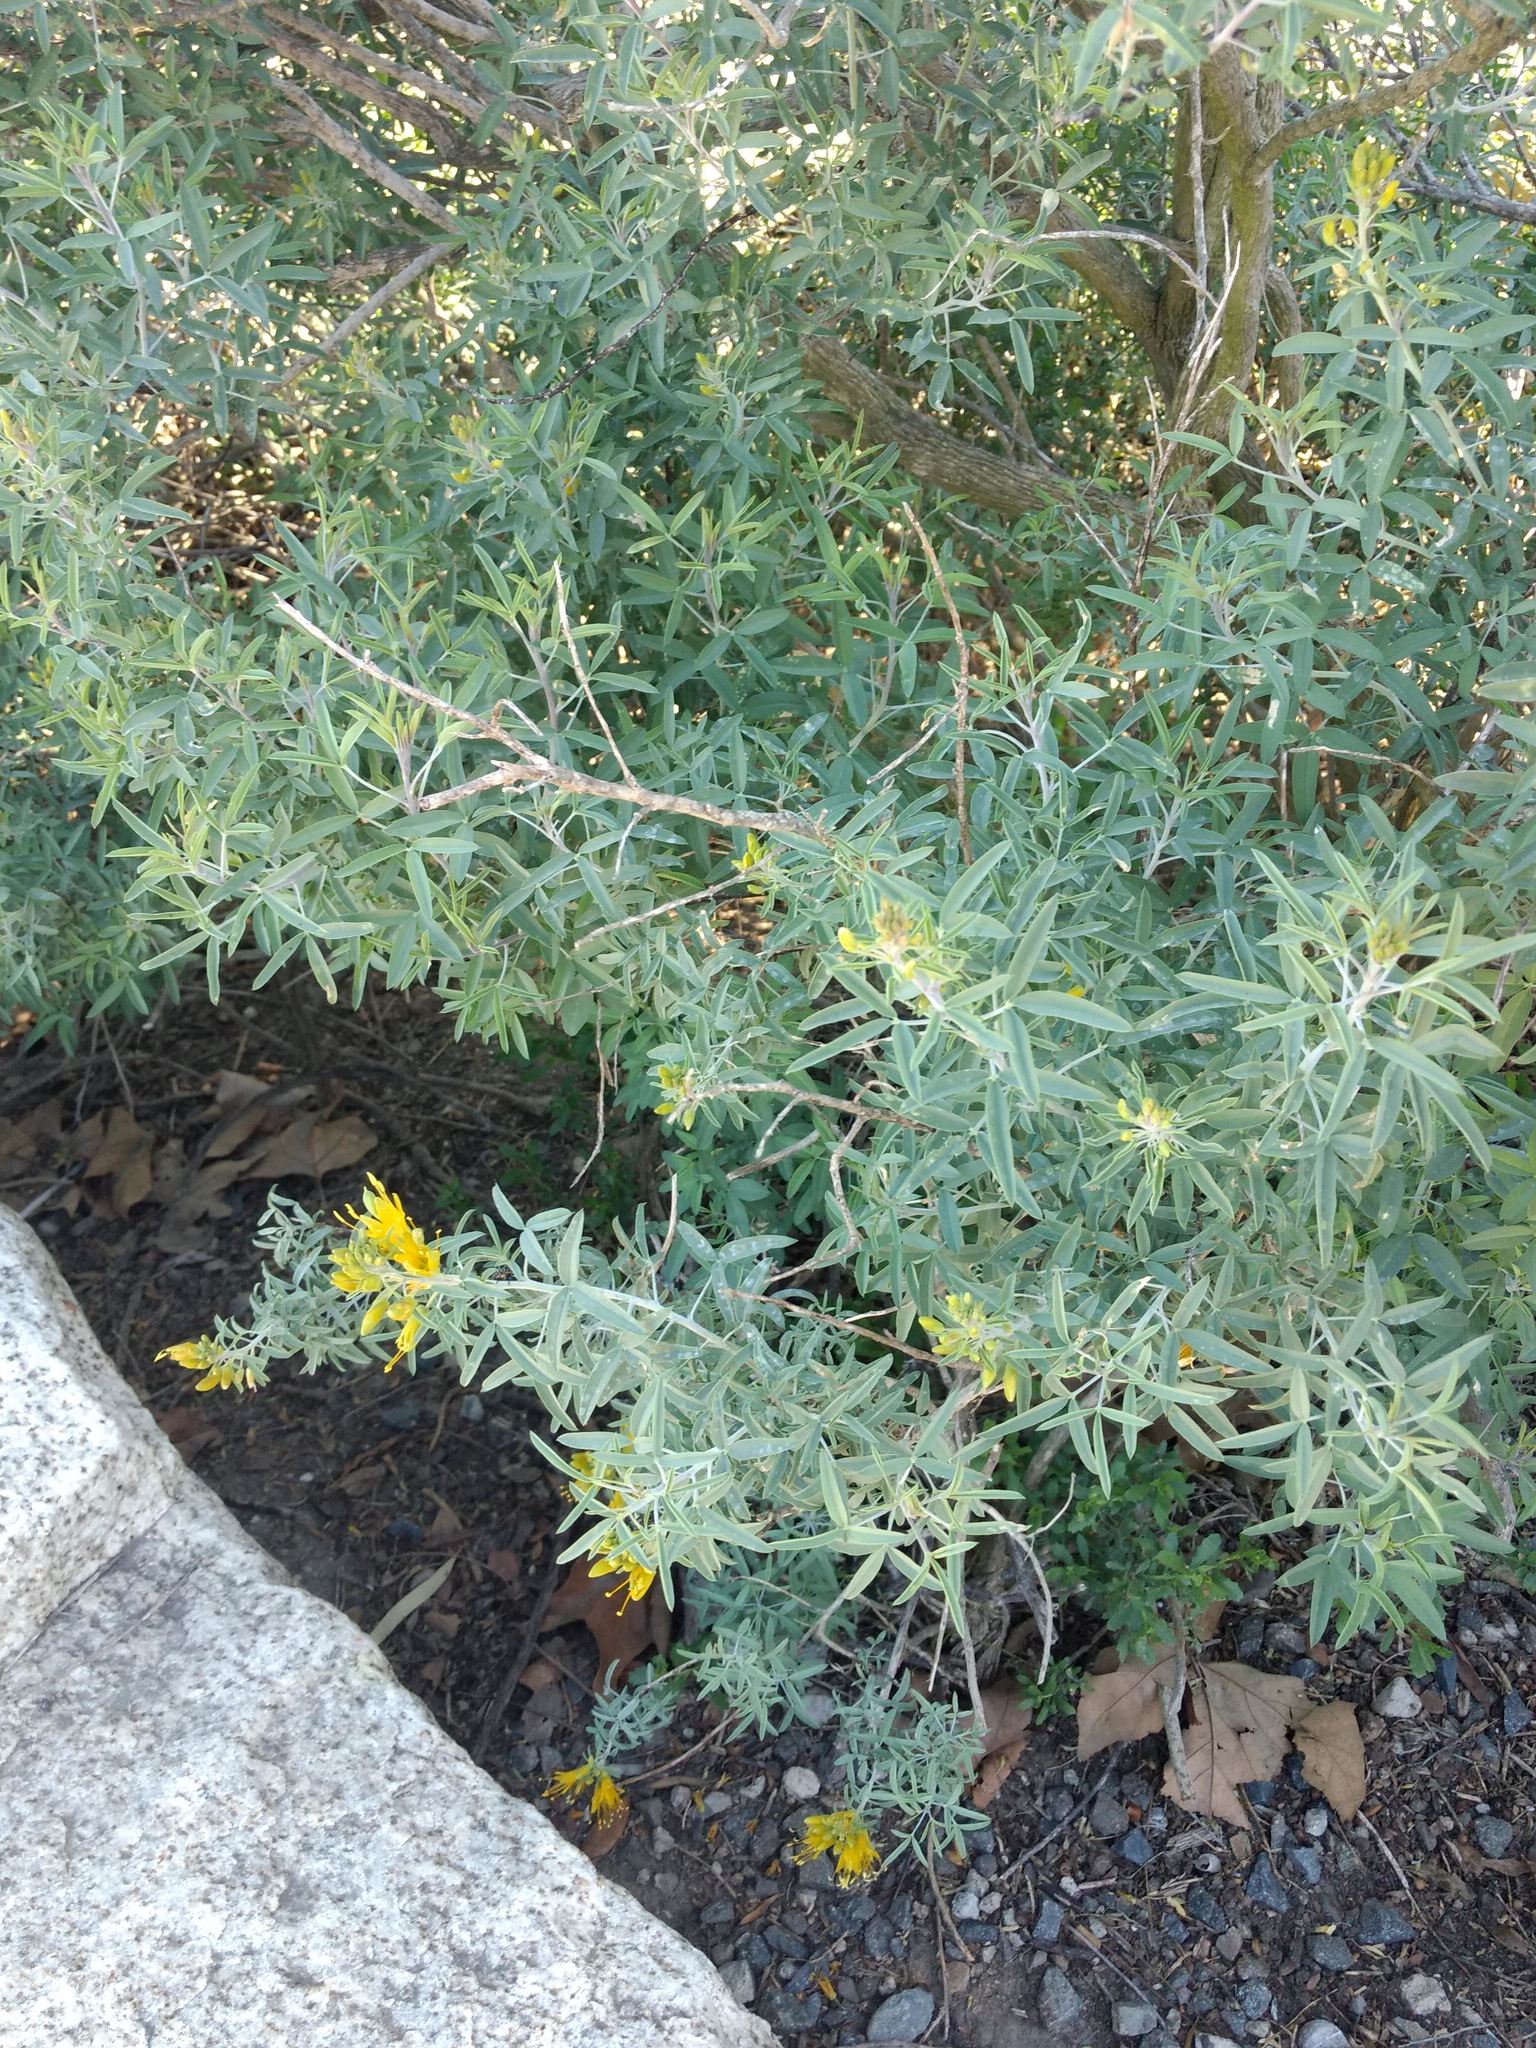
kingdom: Plantae
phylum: Tracheophyta
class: Magnoliopsida
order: Brassicales
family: Cleomaceae
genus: Cleomella
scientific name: Cleomella arborea
